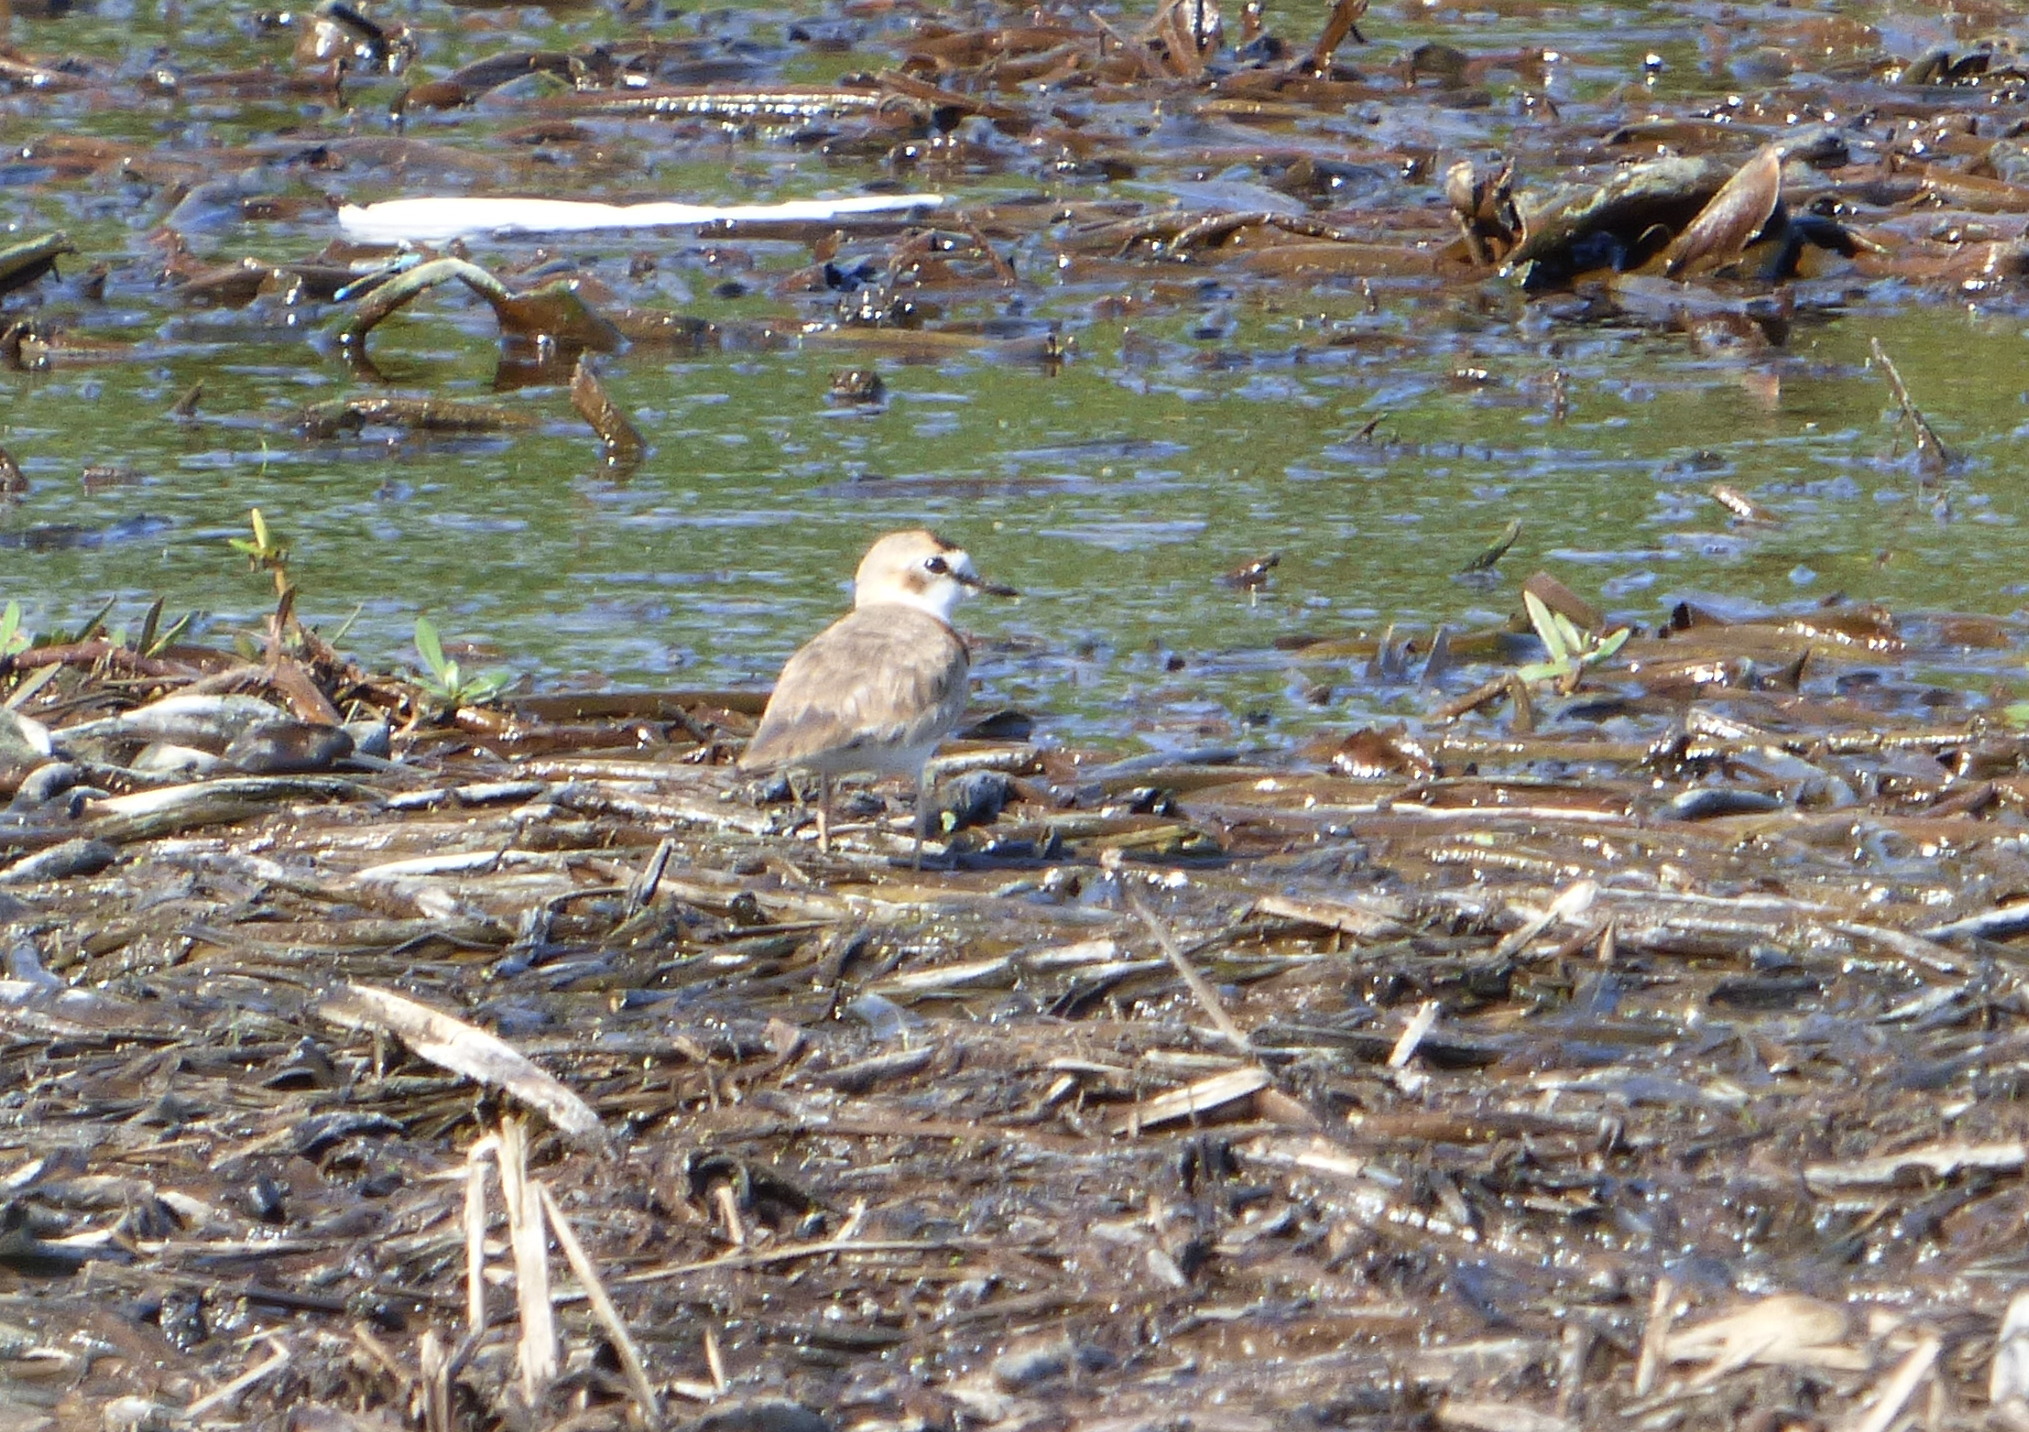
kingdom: Animalia
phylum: Chordata
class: Aves
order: Charadriiformes
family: Charadriidae
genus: Anarhynchus
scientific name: Anarhynchus
